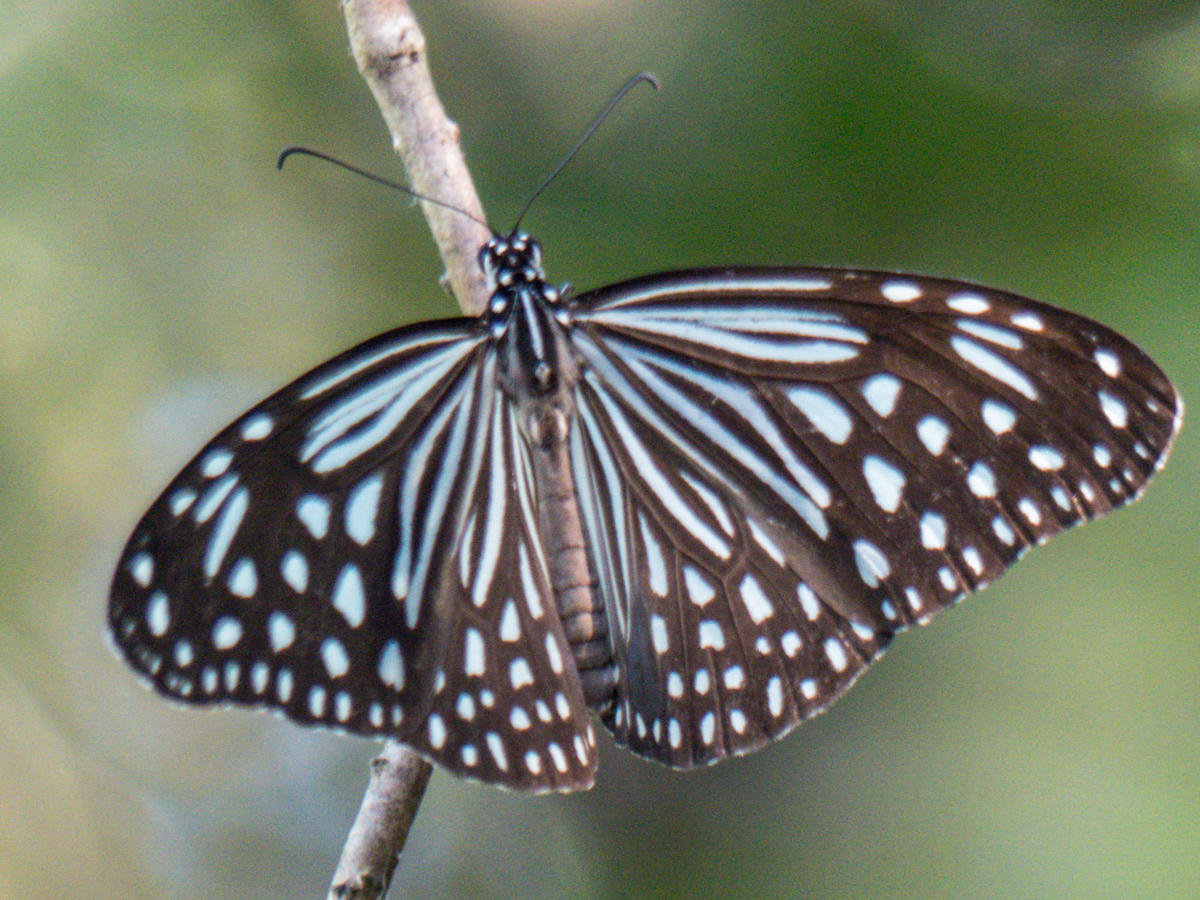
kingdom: Animalia
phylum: Arthropoda
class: Insecta
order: Lepidoptera
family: Nymphalidae
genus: Parantica
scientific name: Parantica agleoides
